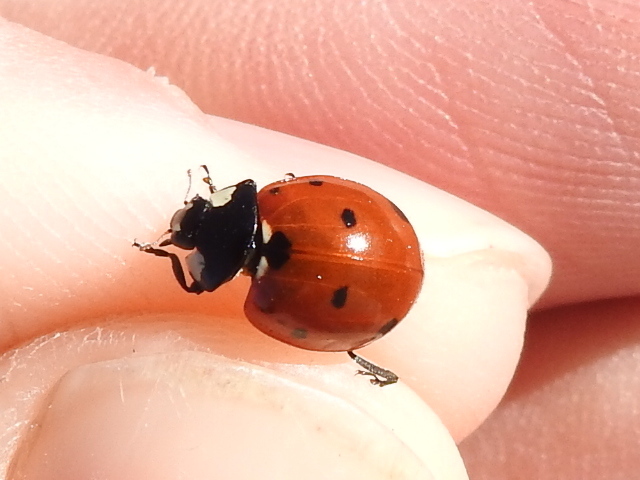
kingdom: Animalia
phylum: Arthropoda
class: Insecta
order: Coleoptera
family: Coccinellidae
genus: Coccinella
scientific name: Coccinella septempunctata
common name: Sevenspotted lady beetle
